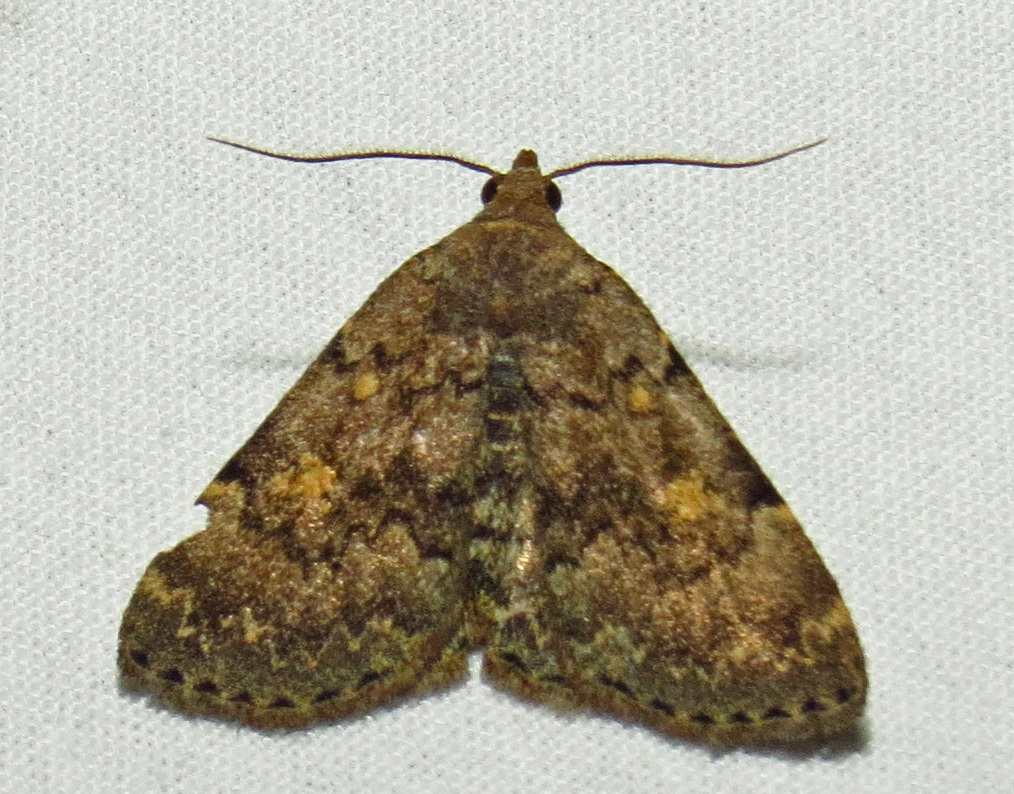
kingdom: Animalia
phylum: Arthropoda
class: Insecta
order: Lepidoptera
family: Erebidae
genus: Idia
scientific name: Idia aemula
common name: Common idia moth
